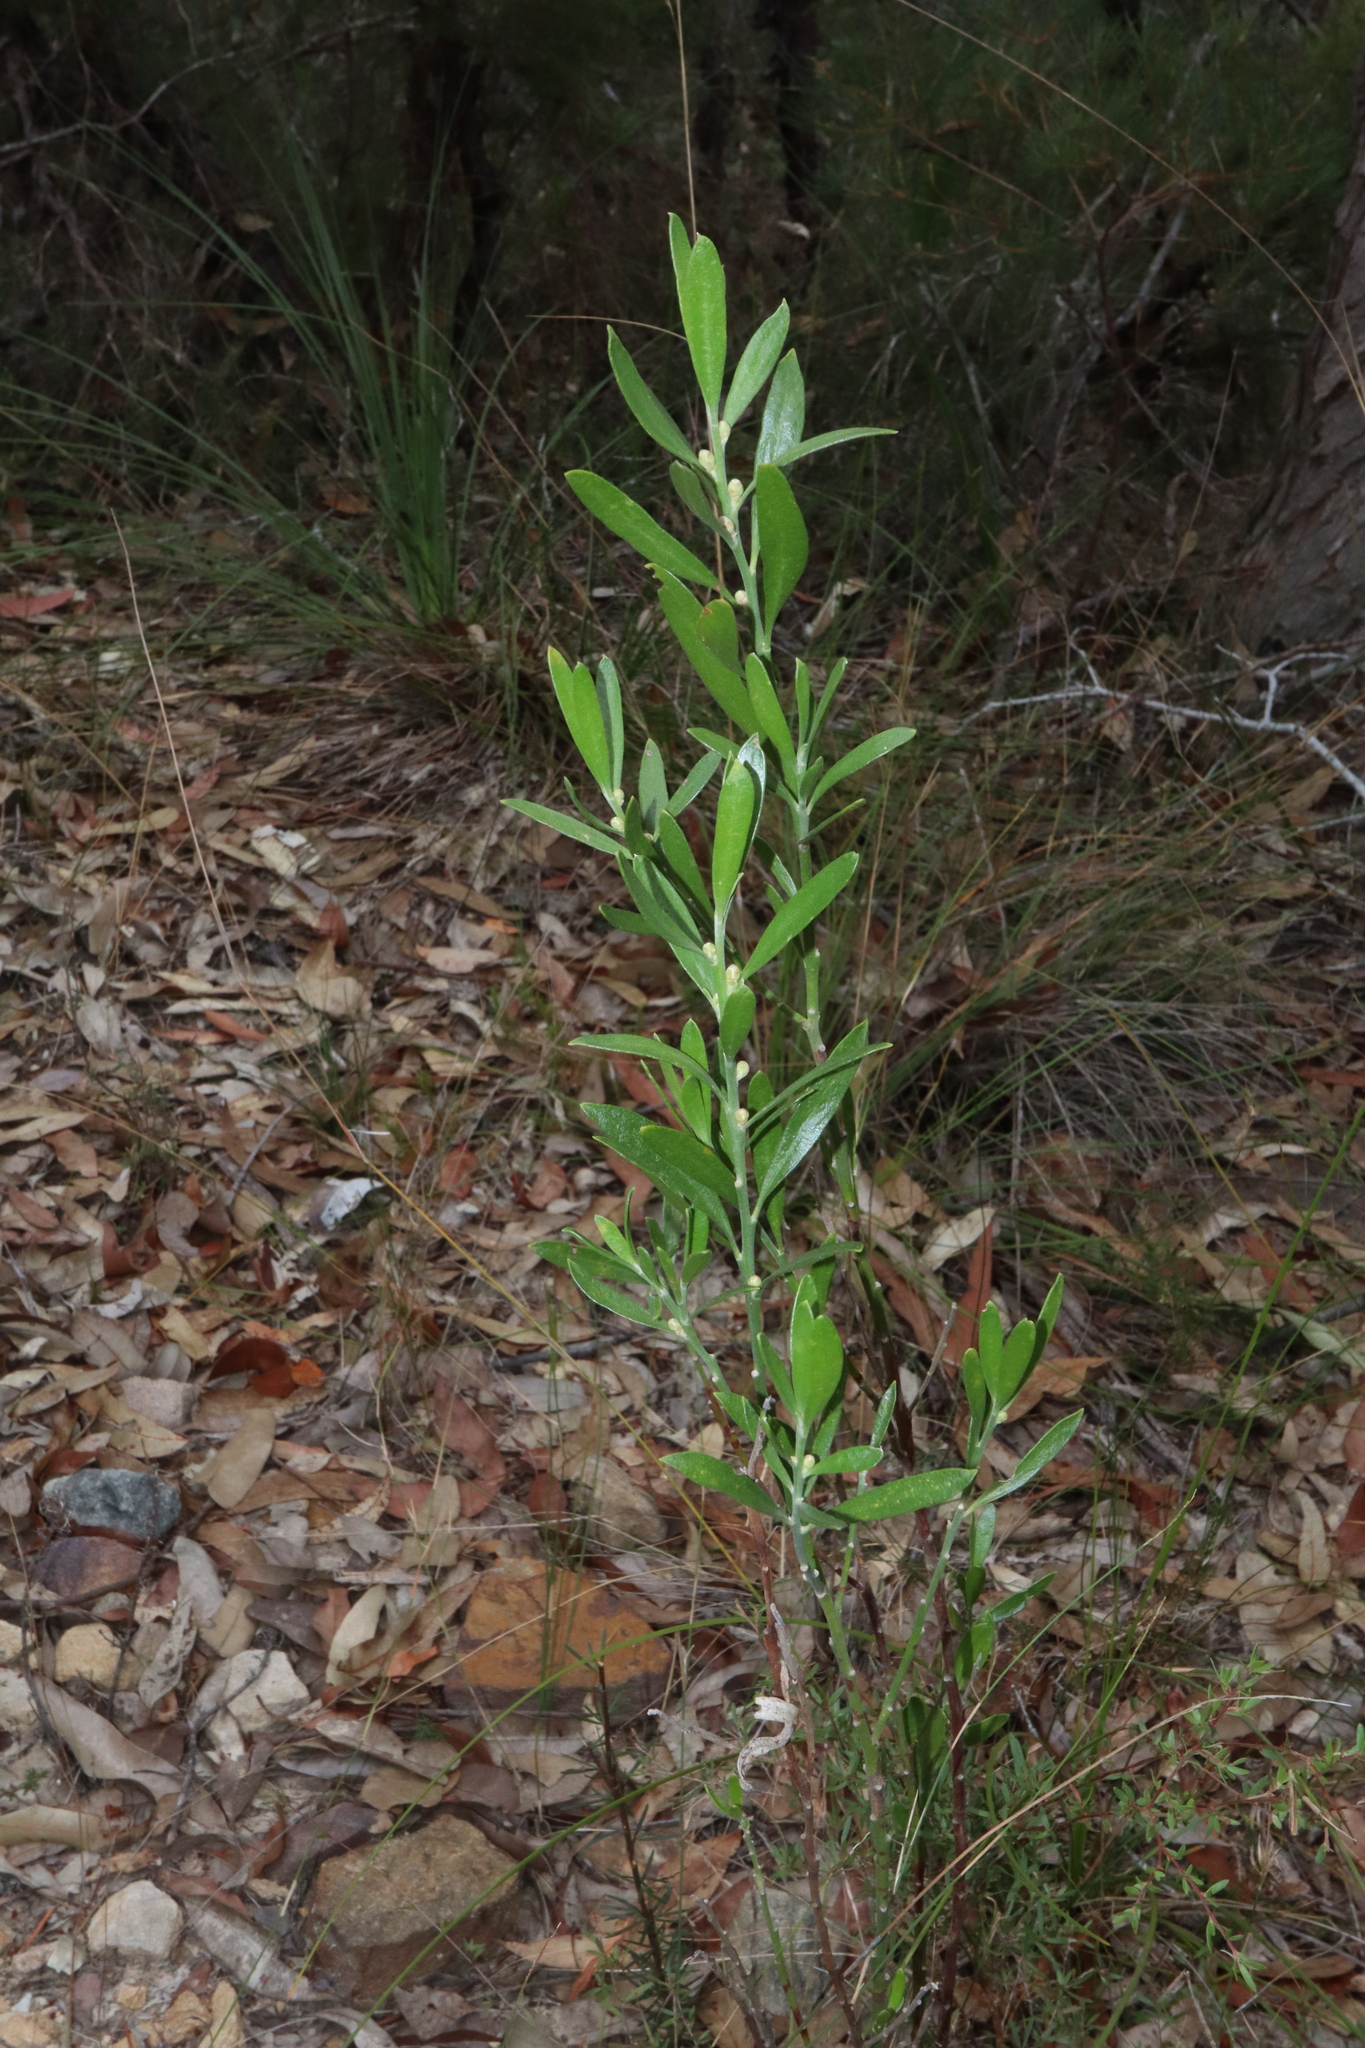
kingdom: Plantae
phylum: Tracheophyta
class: Magnoliopsida
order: Sapindales
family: Rutaceae
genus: Eriostemon
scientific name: Eriostemon australasius
